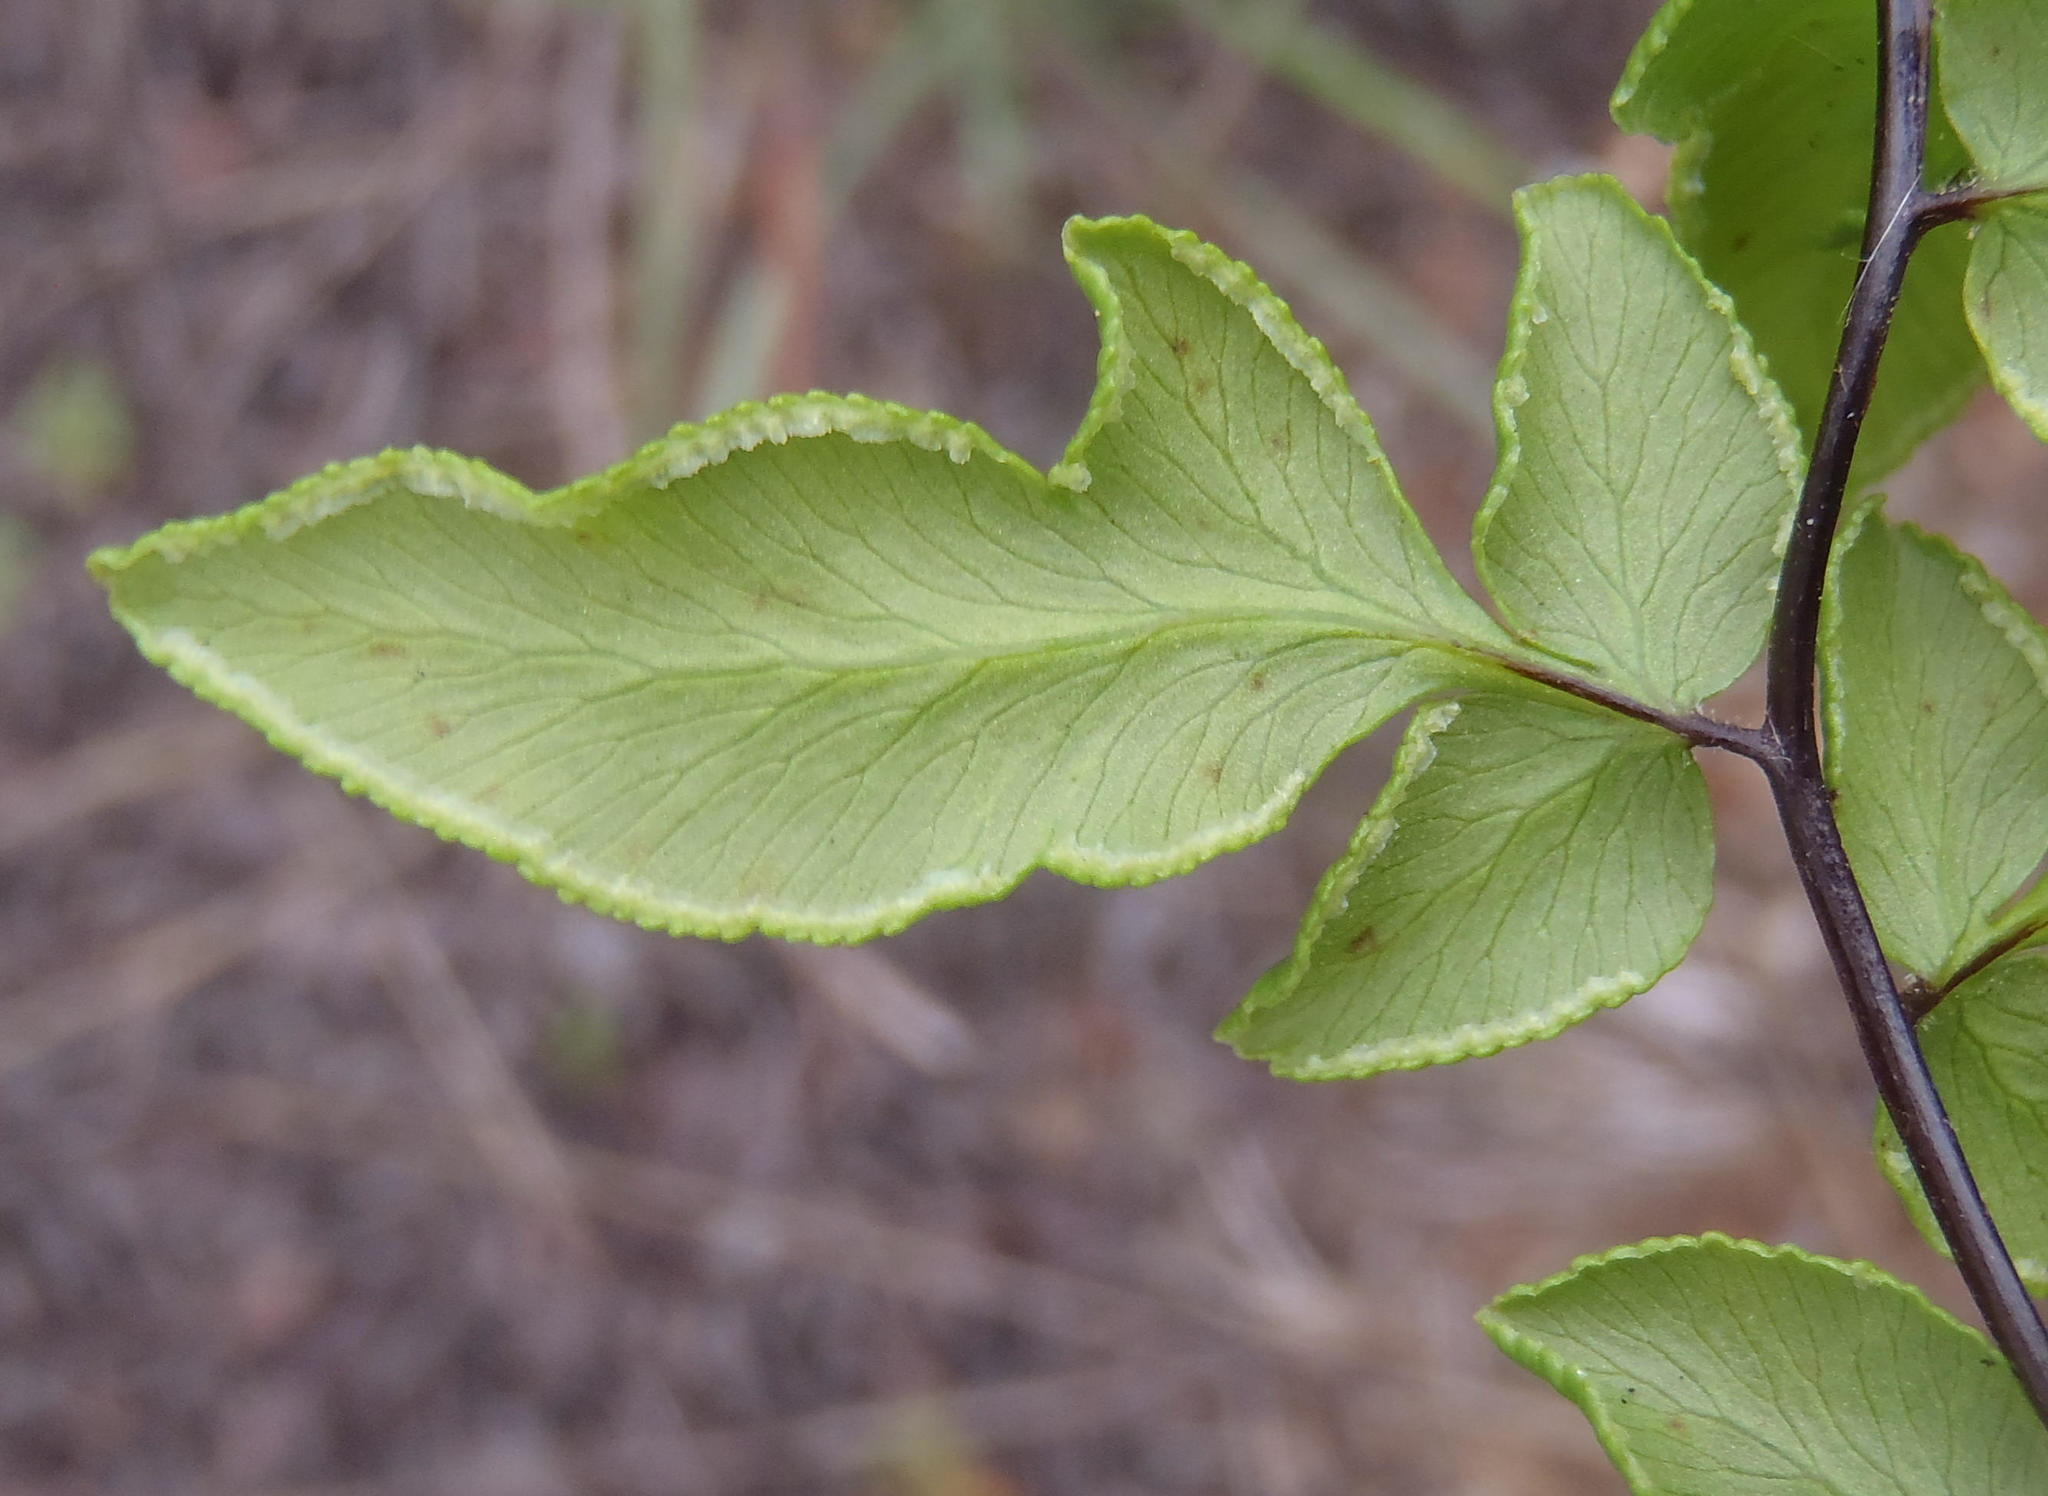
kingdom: Plantae
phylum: Tracheophyta
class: Polypodiopsida
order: Polypodiales
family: Pteridaceae
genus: Cheilanthes
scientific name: Cheilanthes viridis
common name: Green cliffbrake
